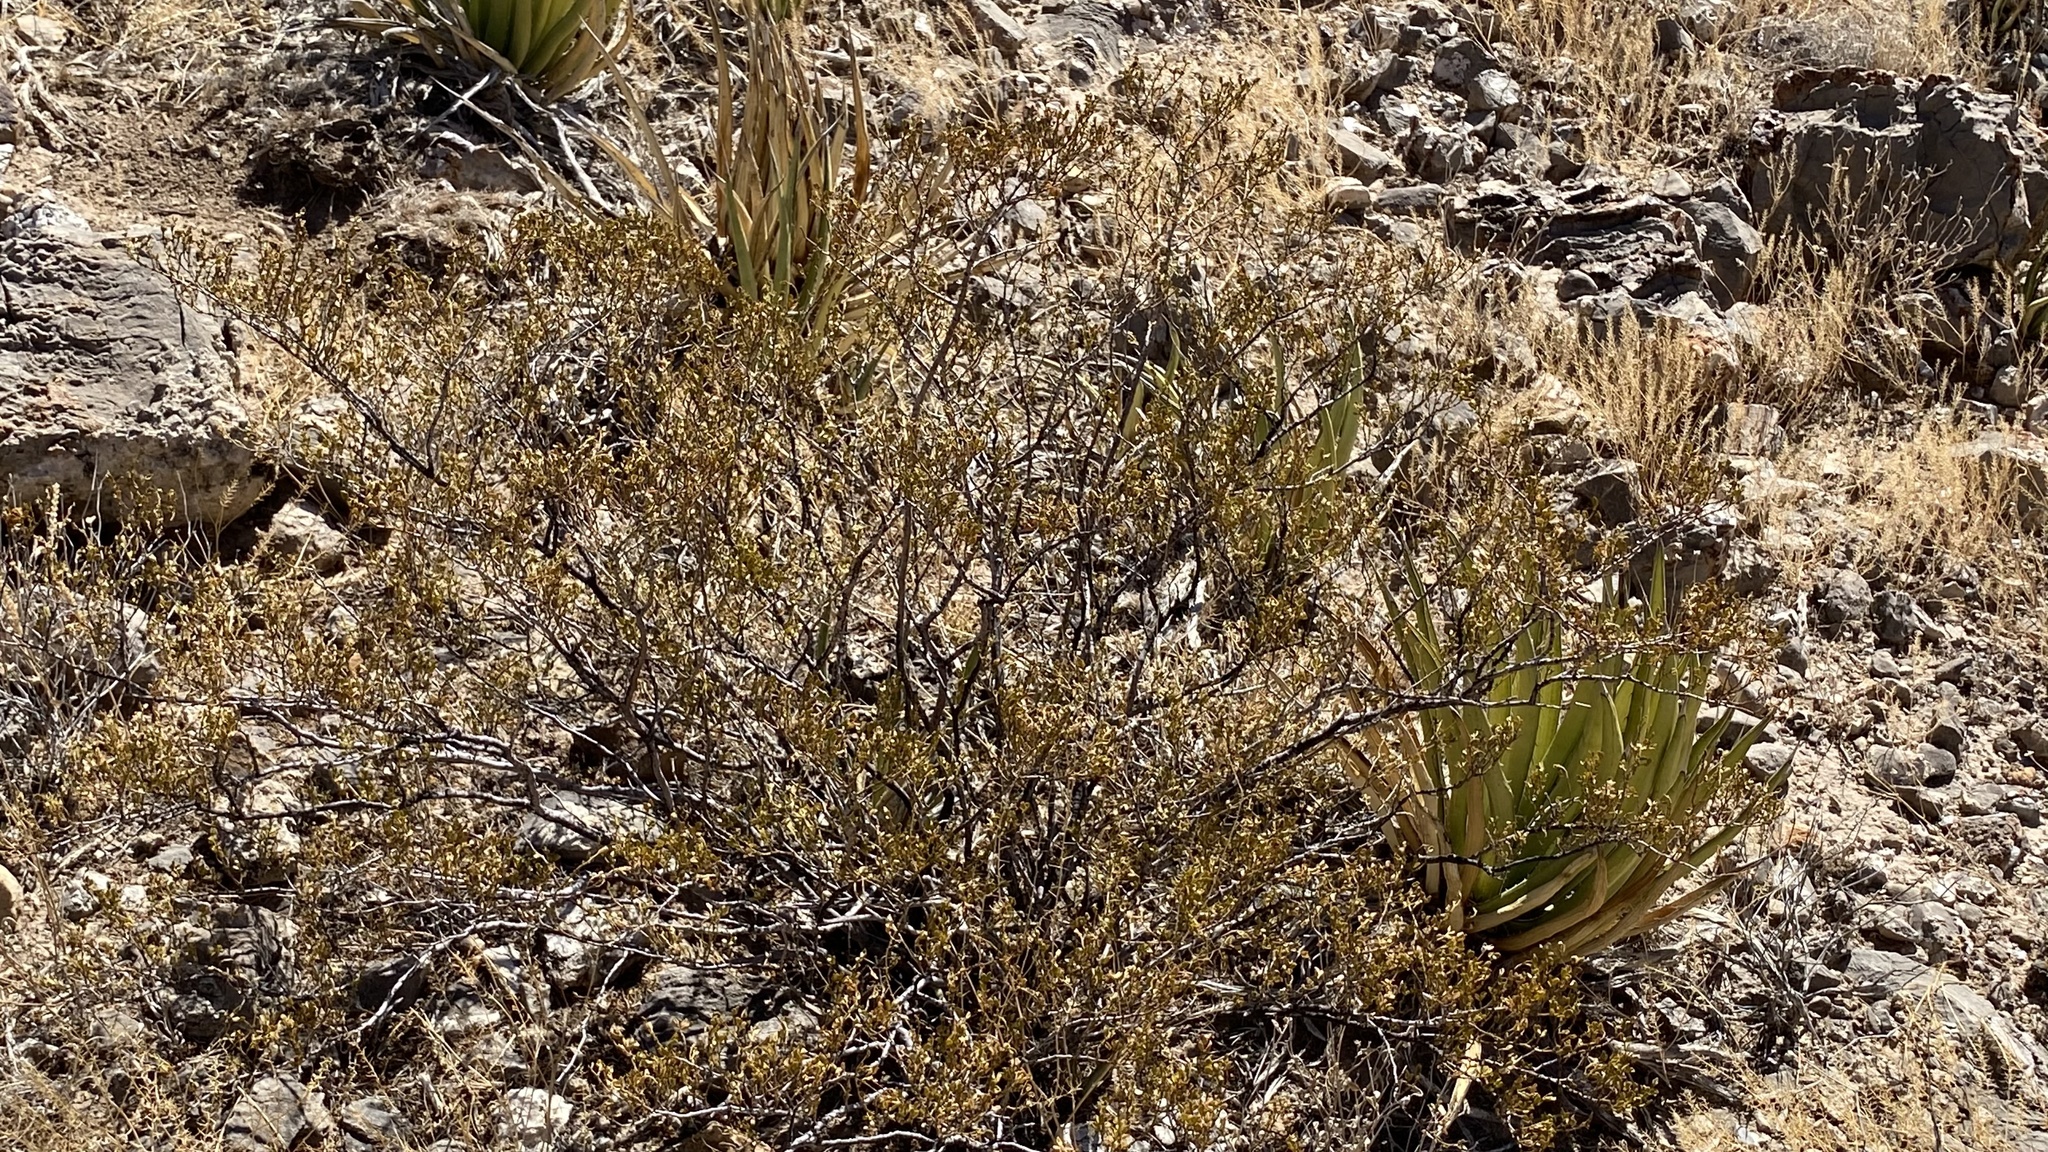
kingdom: Plantae
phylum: Tracheophyta
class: Magnoliopsida
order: Zygophyllales
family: Zygophyllaceae
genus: Larrea
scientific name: Larrea tridentata
